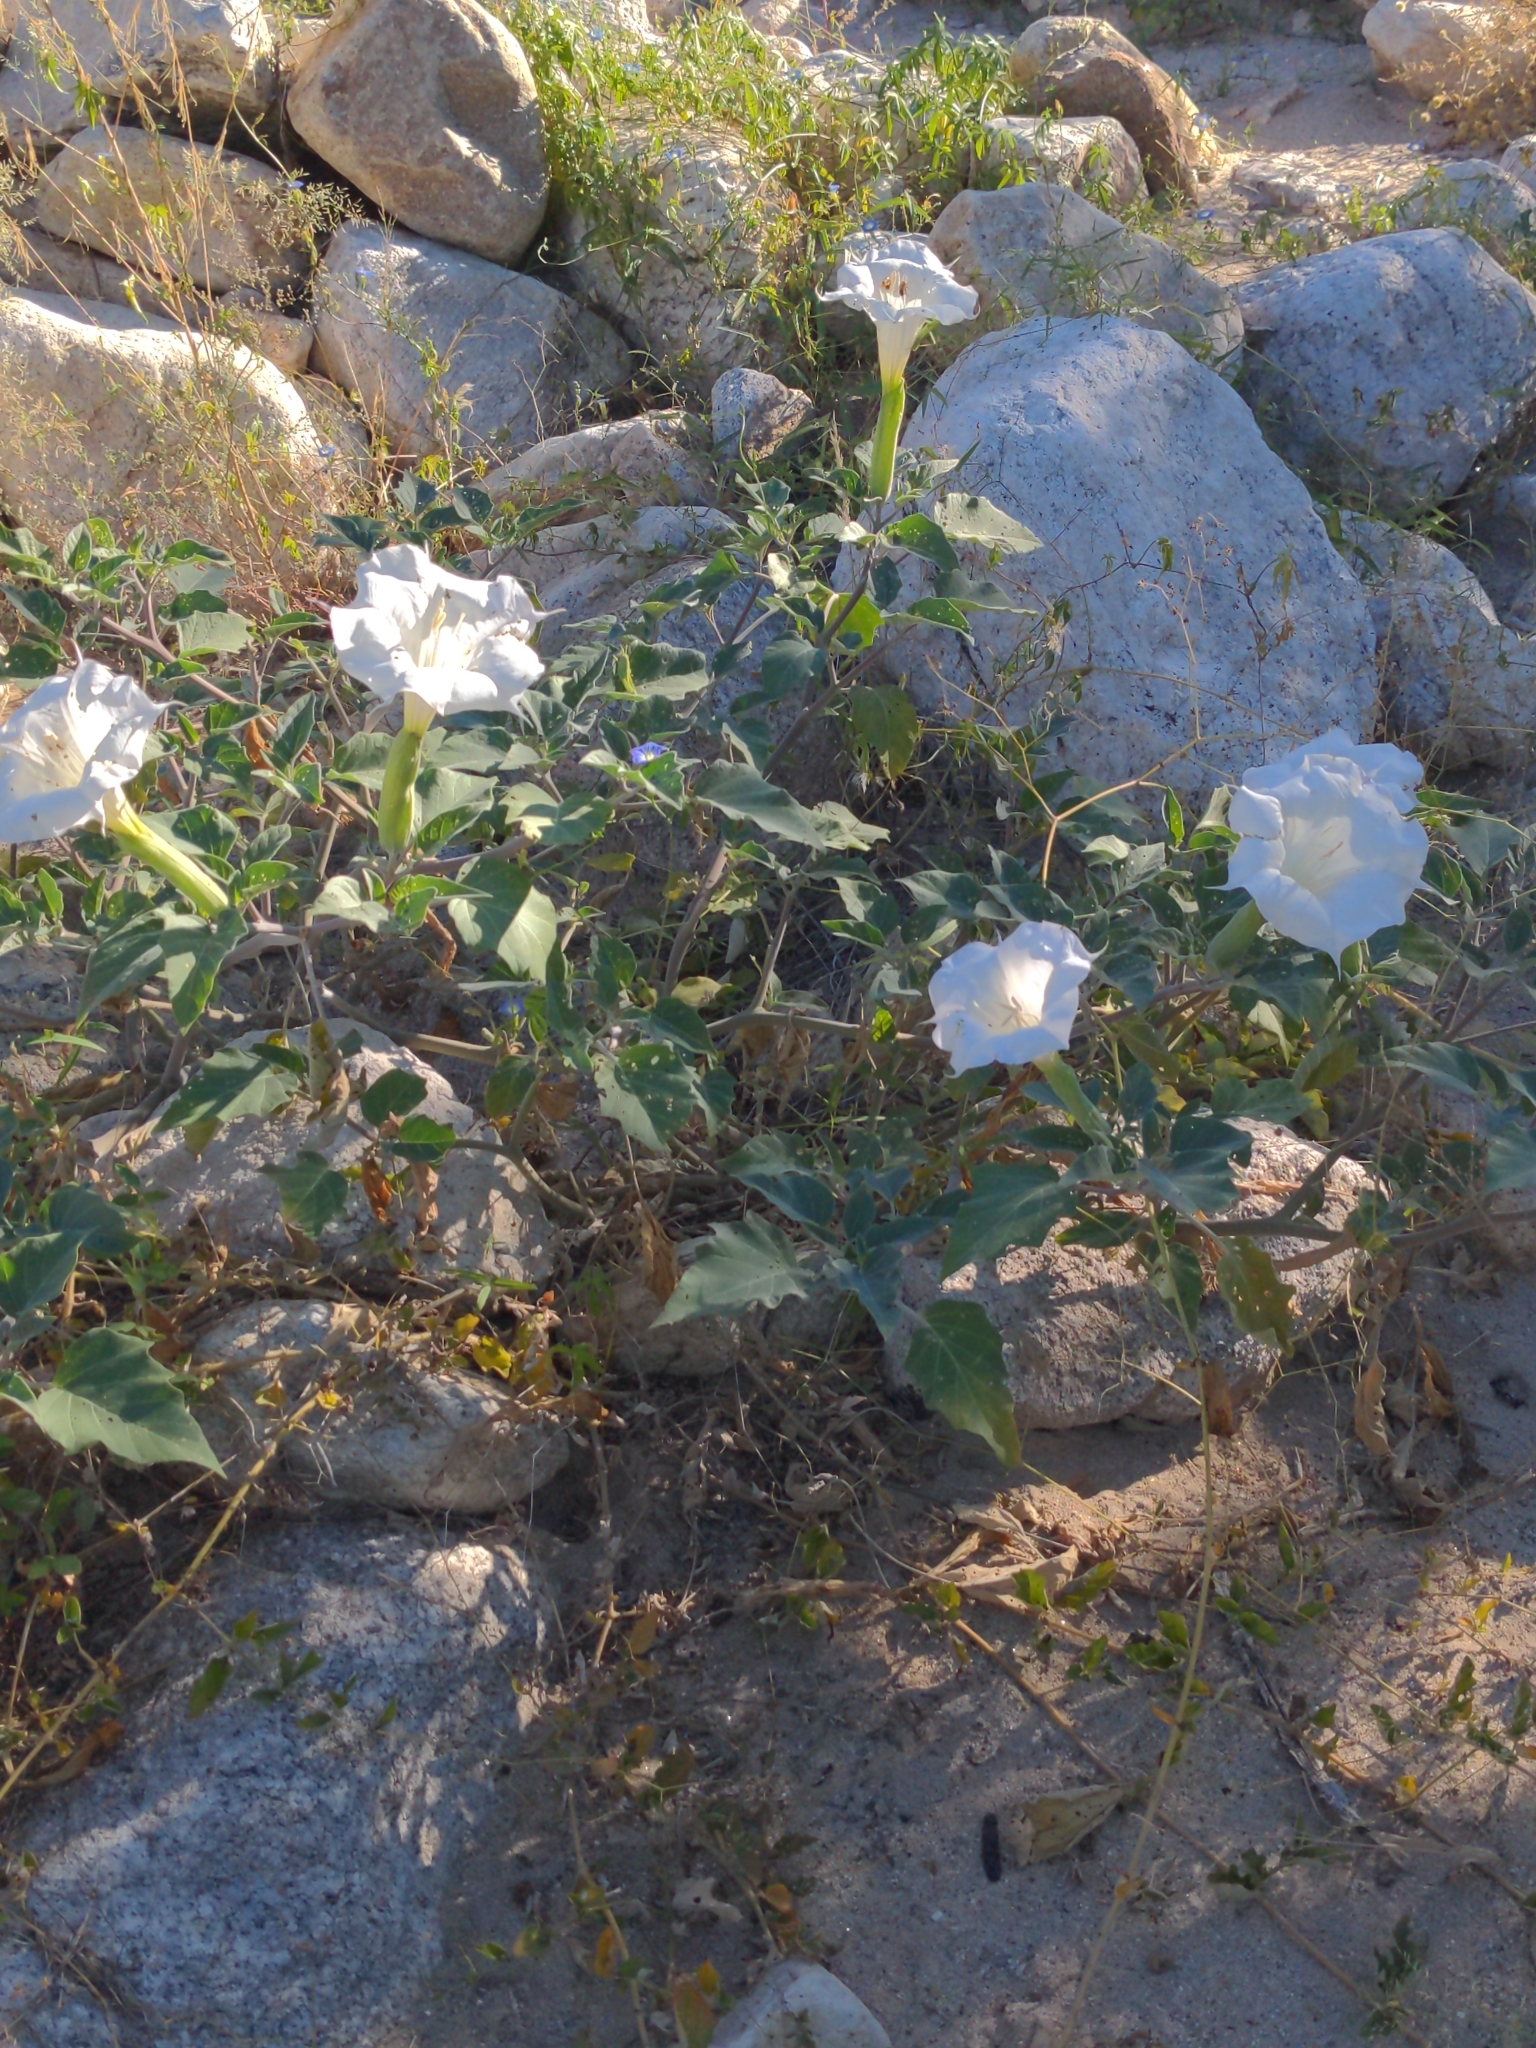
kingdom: Plantae
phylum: Tracheophyta
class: Magnoliopsida
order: Solanales
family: Solanaceae
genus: Datura
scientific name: Datura wrightii
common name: Sacred thorn-apple
